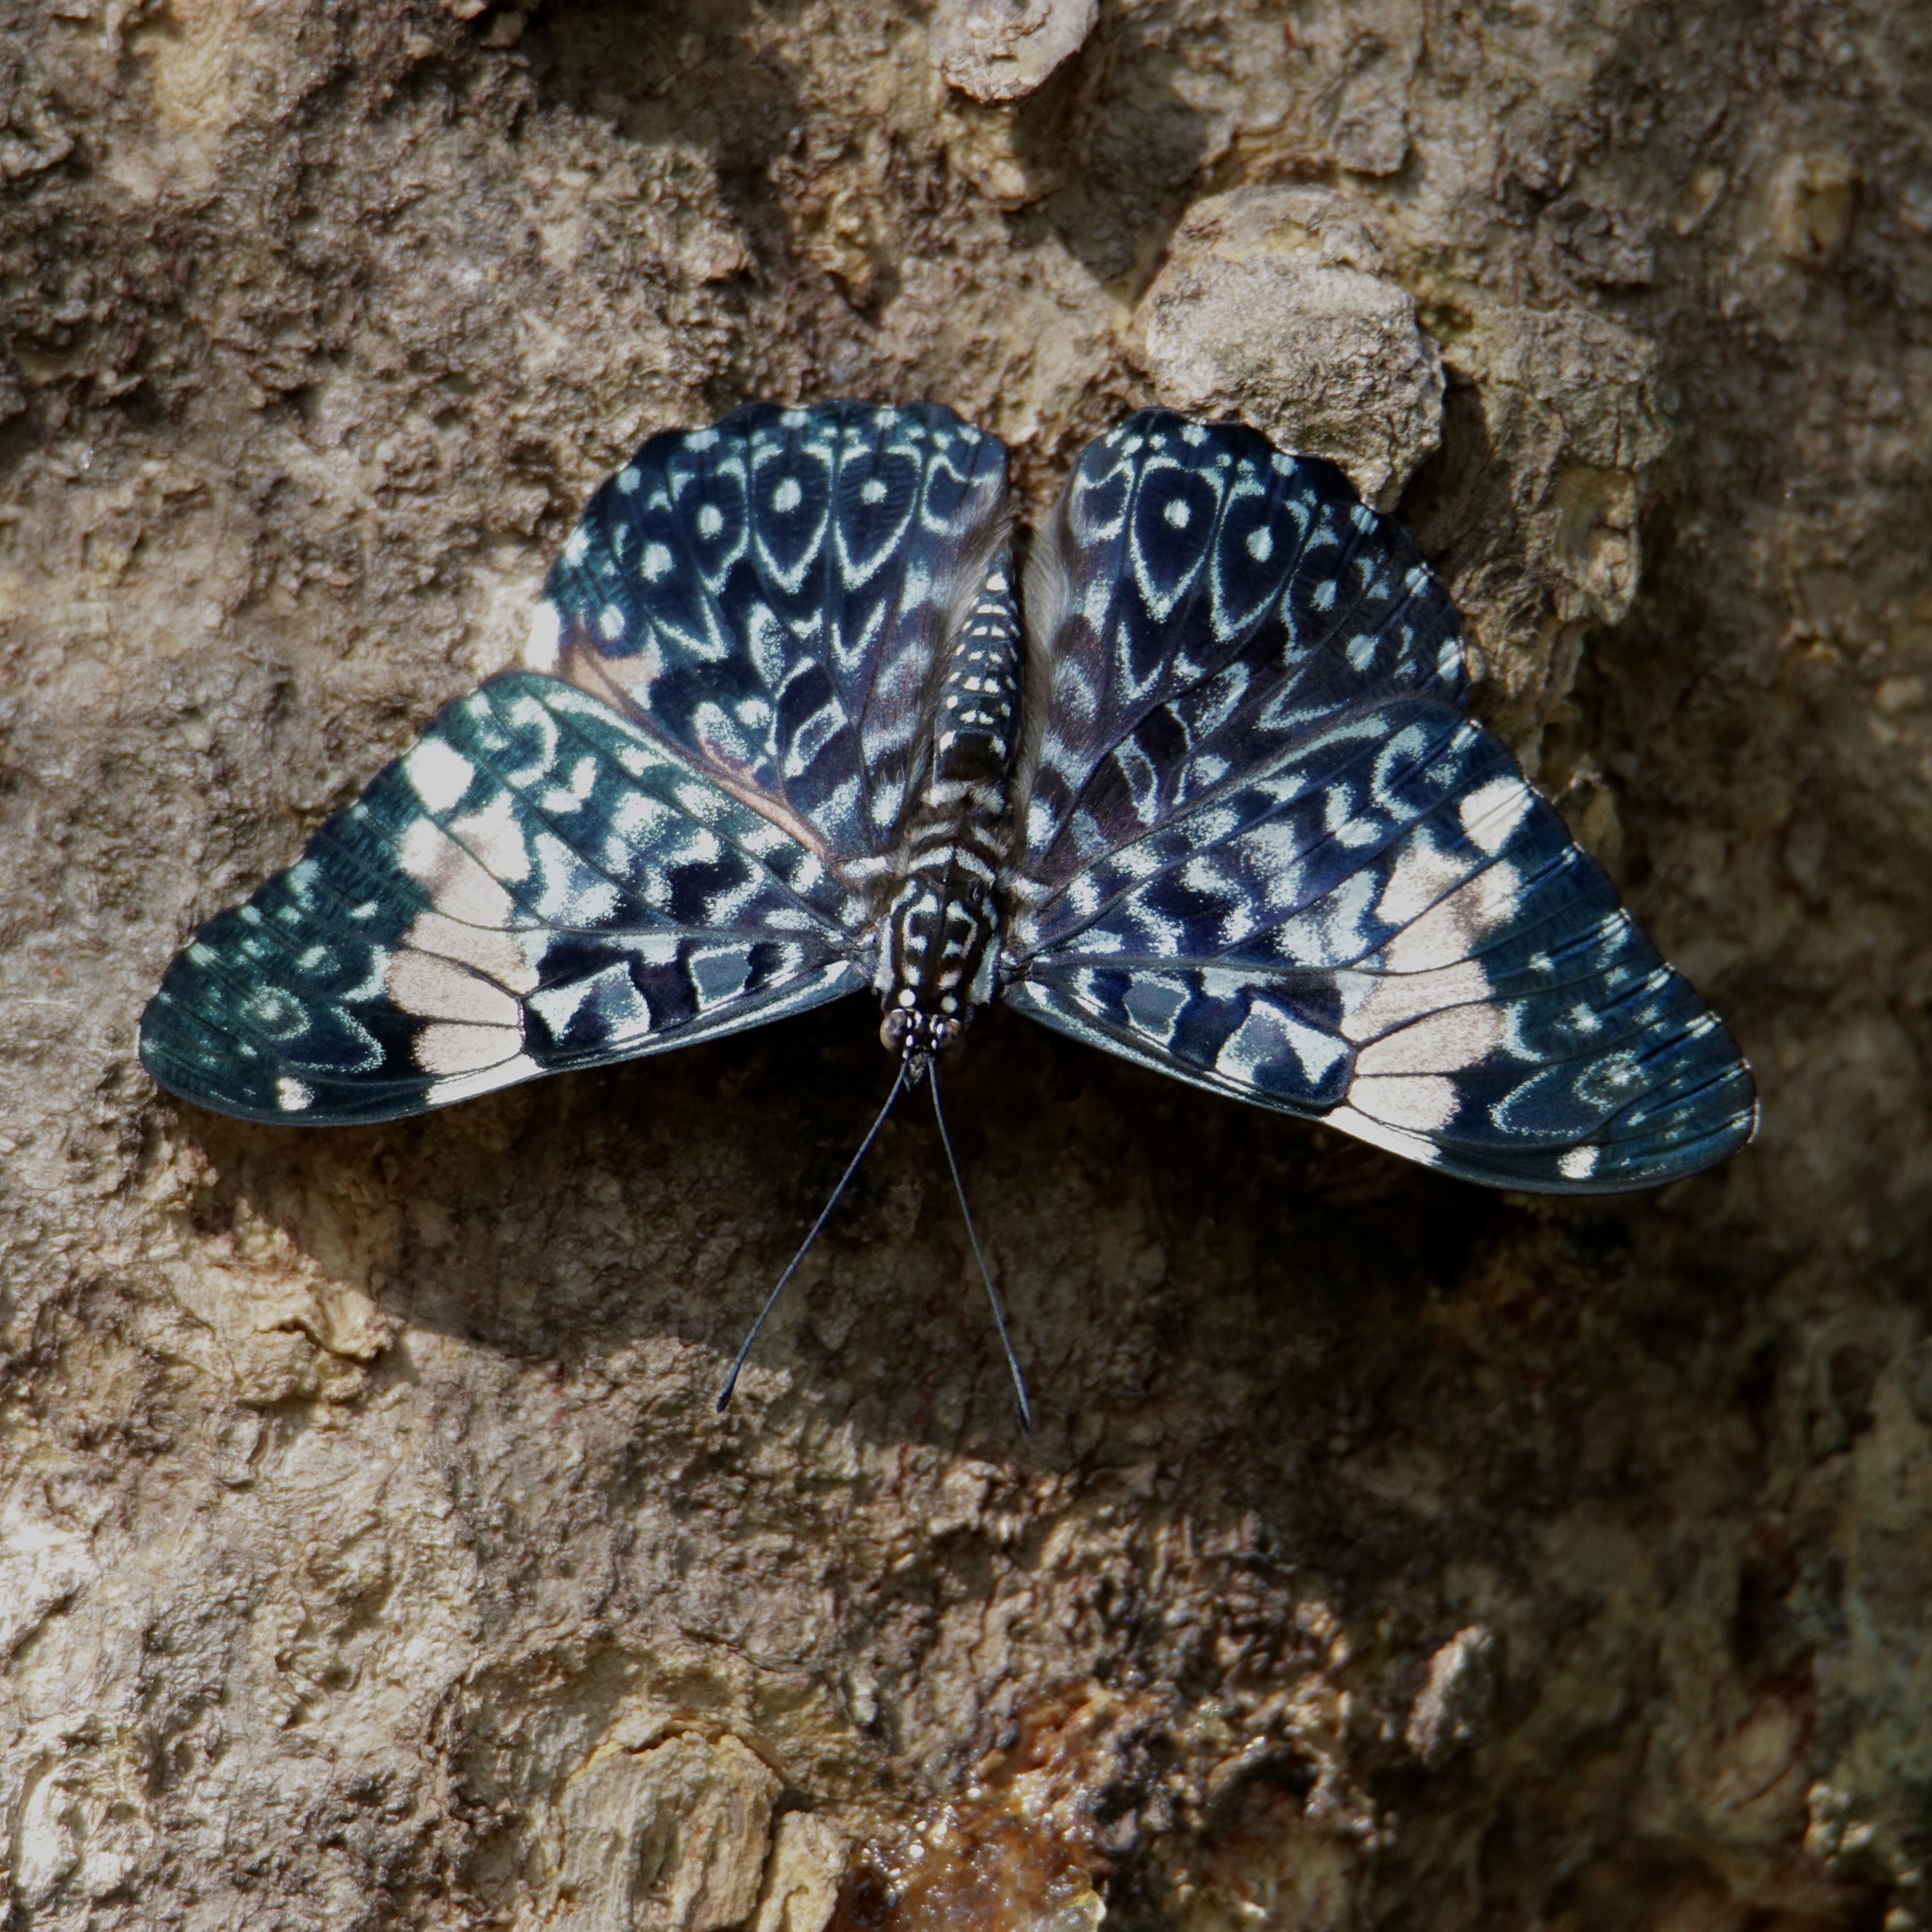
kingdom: Animalia
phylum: Arthropoda
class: Insecta
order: Lepidoptera
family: Nymphalidae
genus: Hamadryas
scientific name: Hamadryas amphinome
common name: Red cracker
